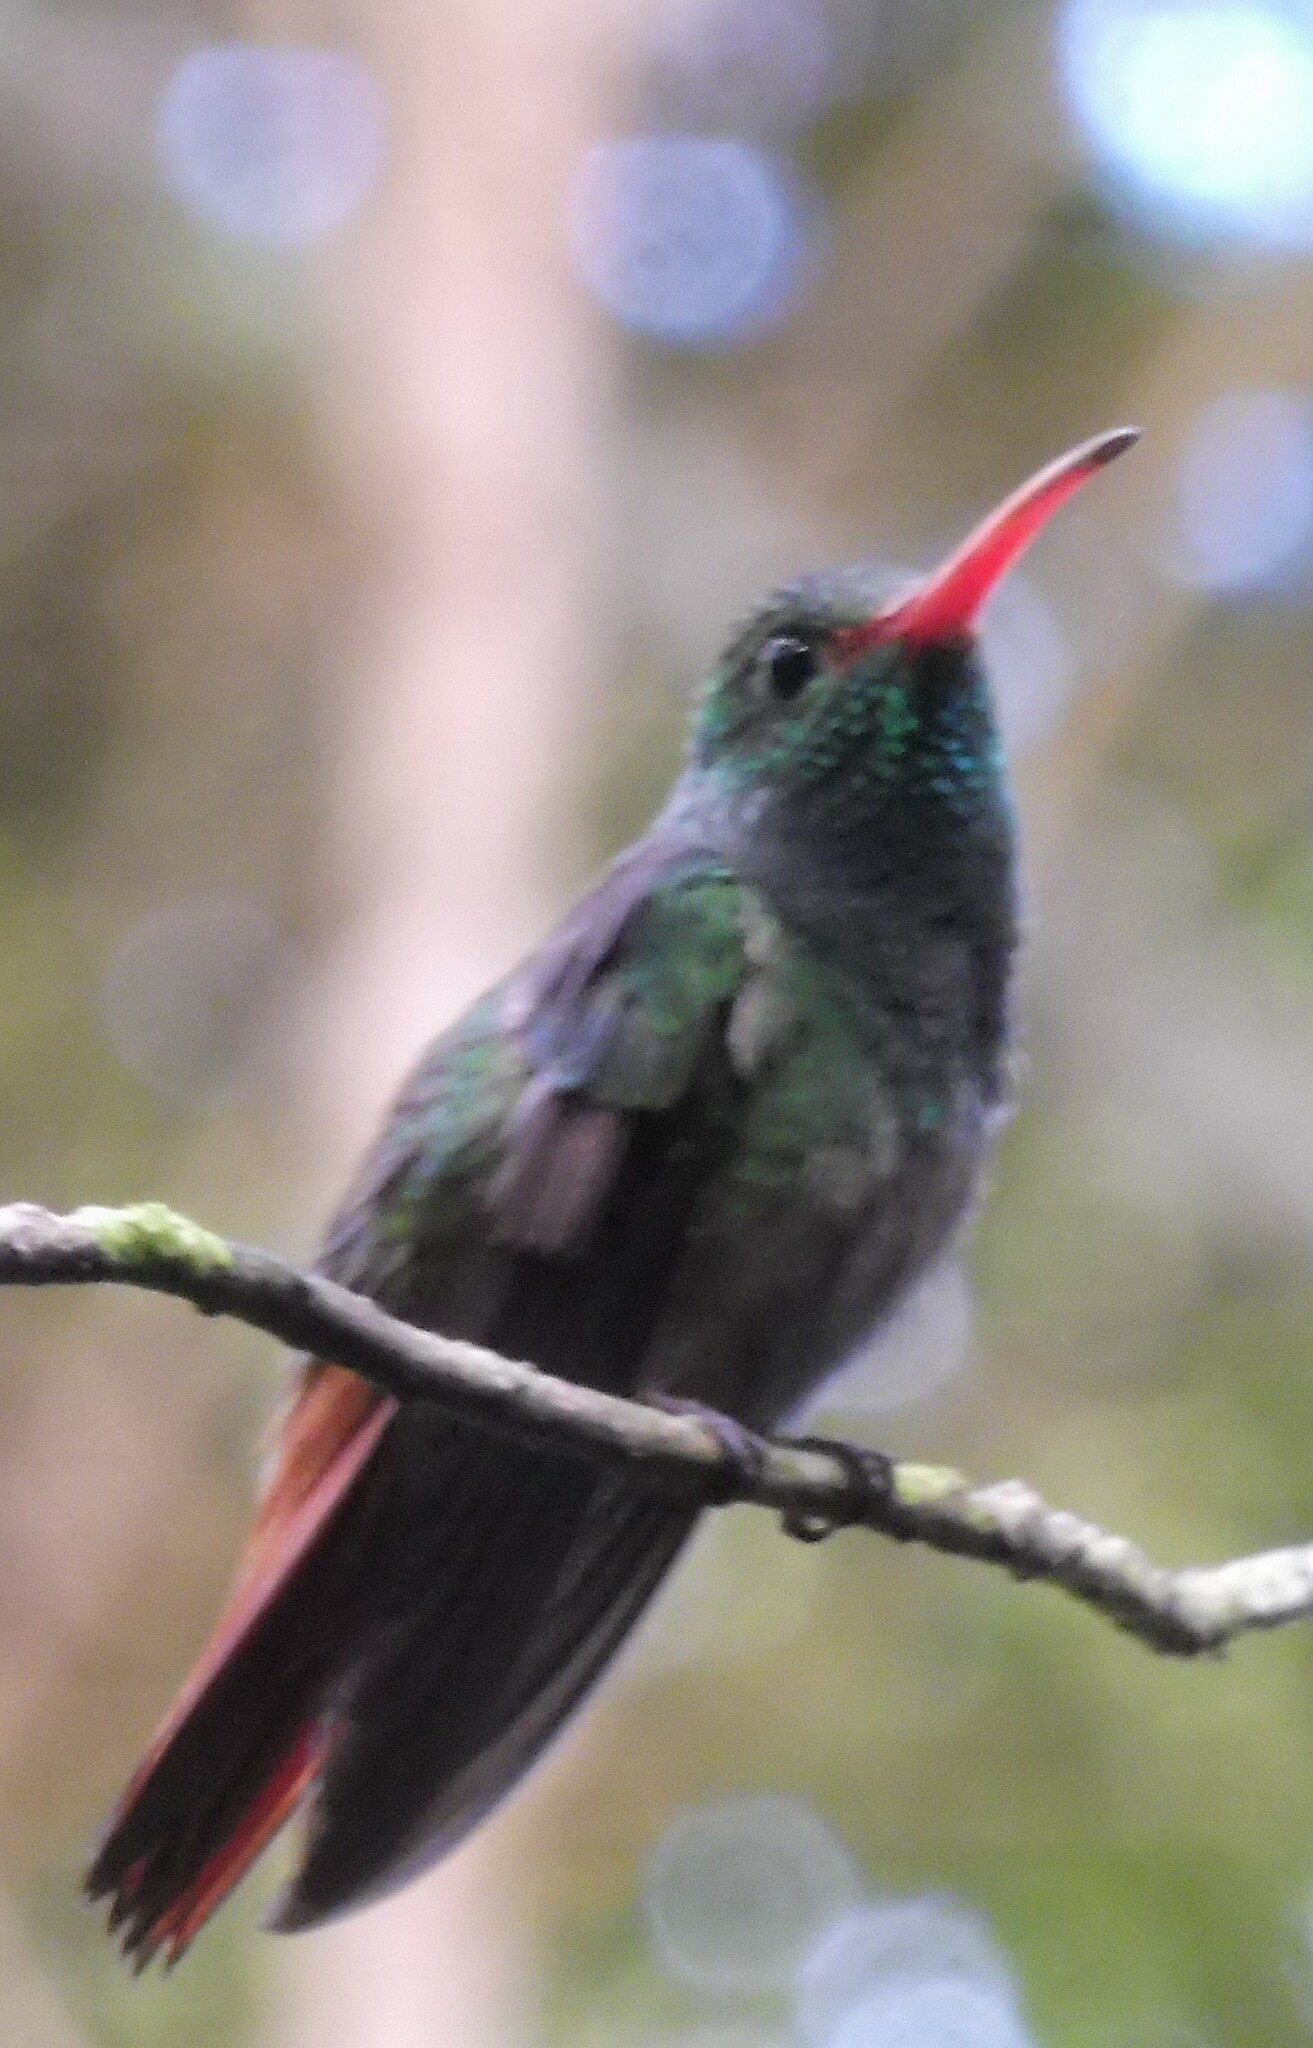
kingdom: Animalia
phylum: Chordata
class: Aves
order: Apodiformes
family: Trochilidae
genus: Amazilia
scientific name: Amazilia tzacatl
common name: Rufous-tailed hummingbird
